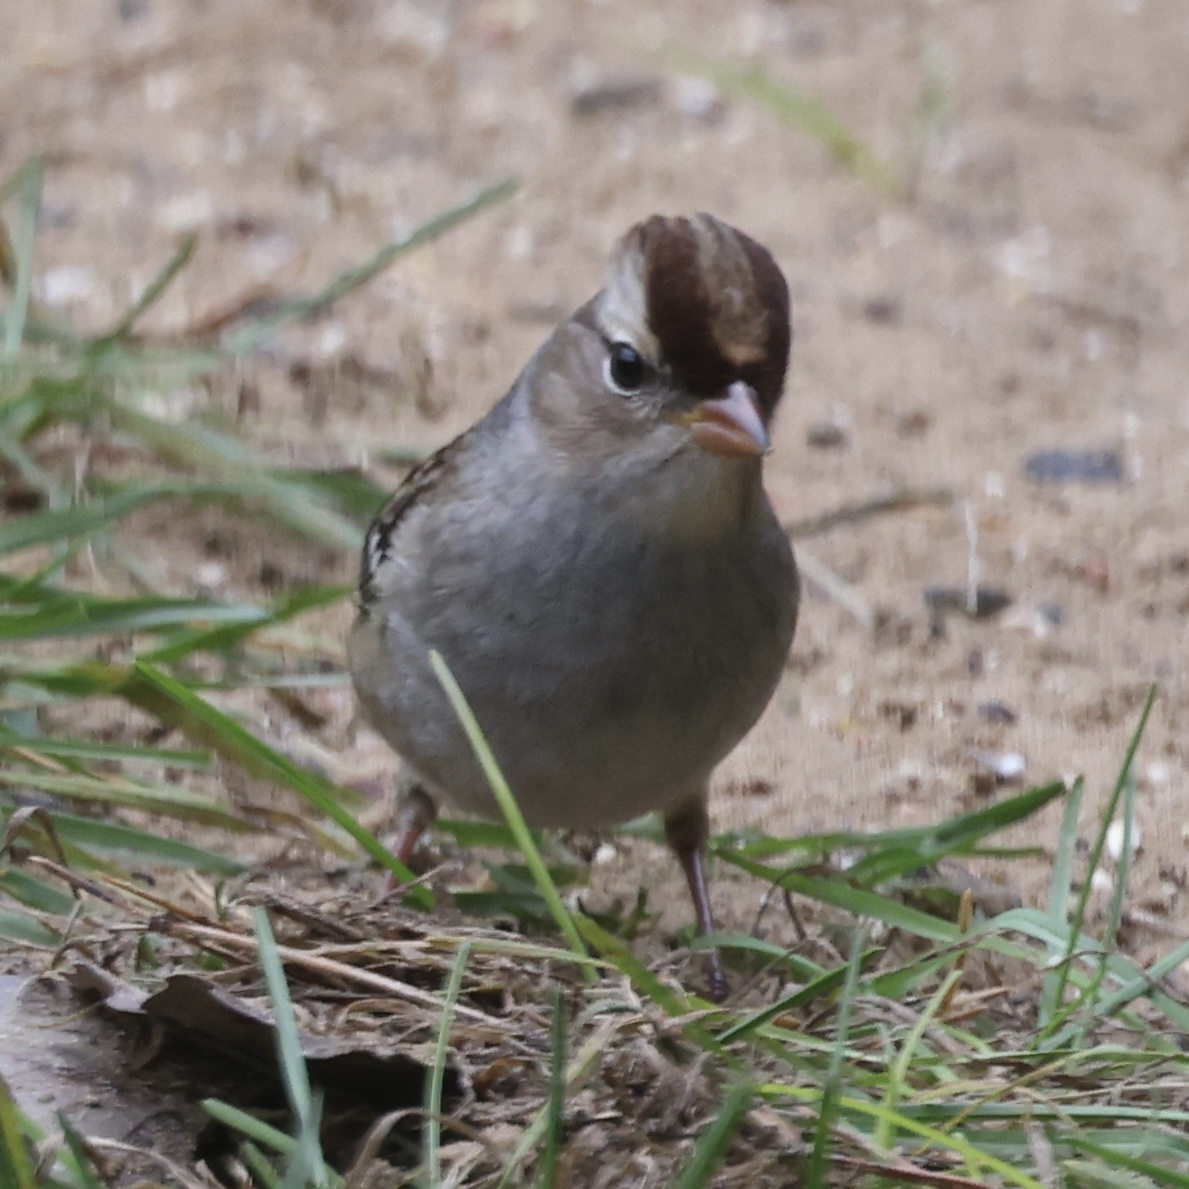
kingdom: Animalia
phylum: Chordata
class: Aves
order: Passeriformes
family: Passerellidae
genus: Zonotrichia
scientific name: Zonotrichia leucophrys
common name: White-crowned sparrow
